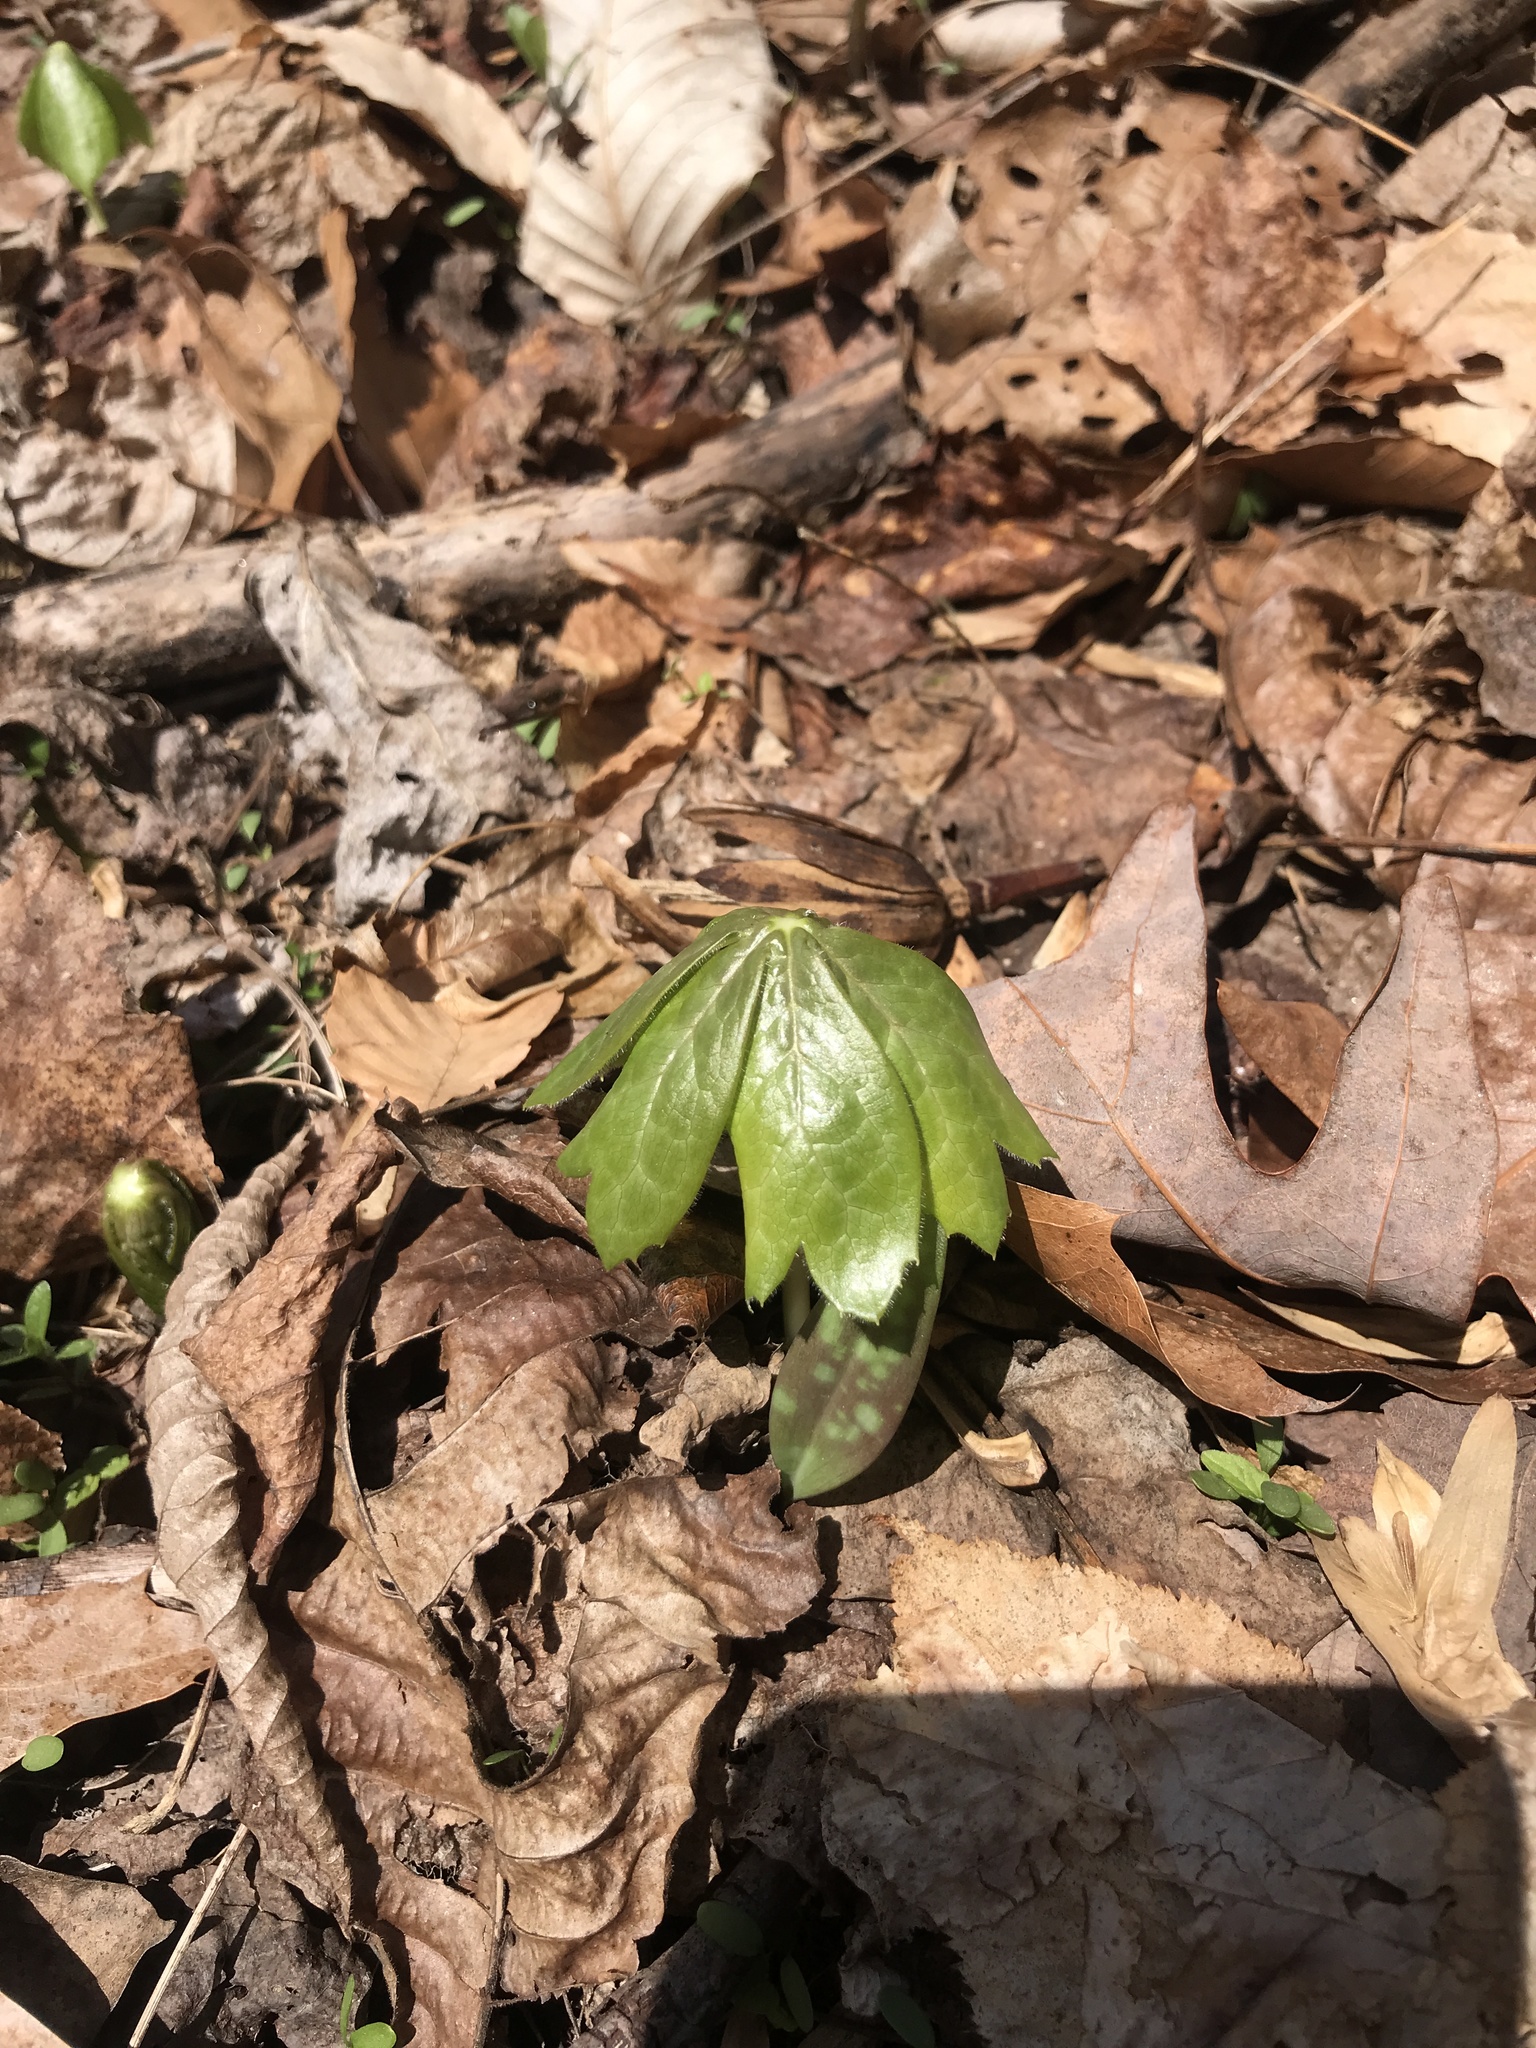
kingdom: Plantae
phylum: Tracheophyta
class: Magnoliopsida
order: Ranunculales
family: Berberidaceae
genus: Podophyllum
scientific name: Podophyllum peltatum
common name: Wild mandrake
